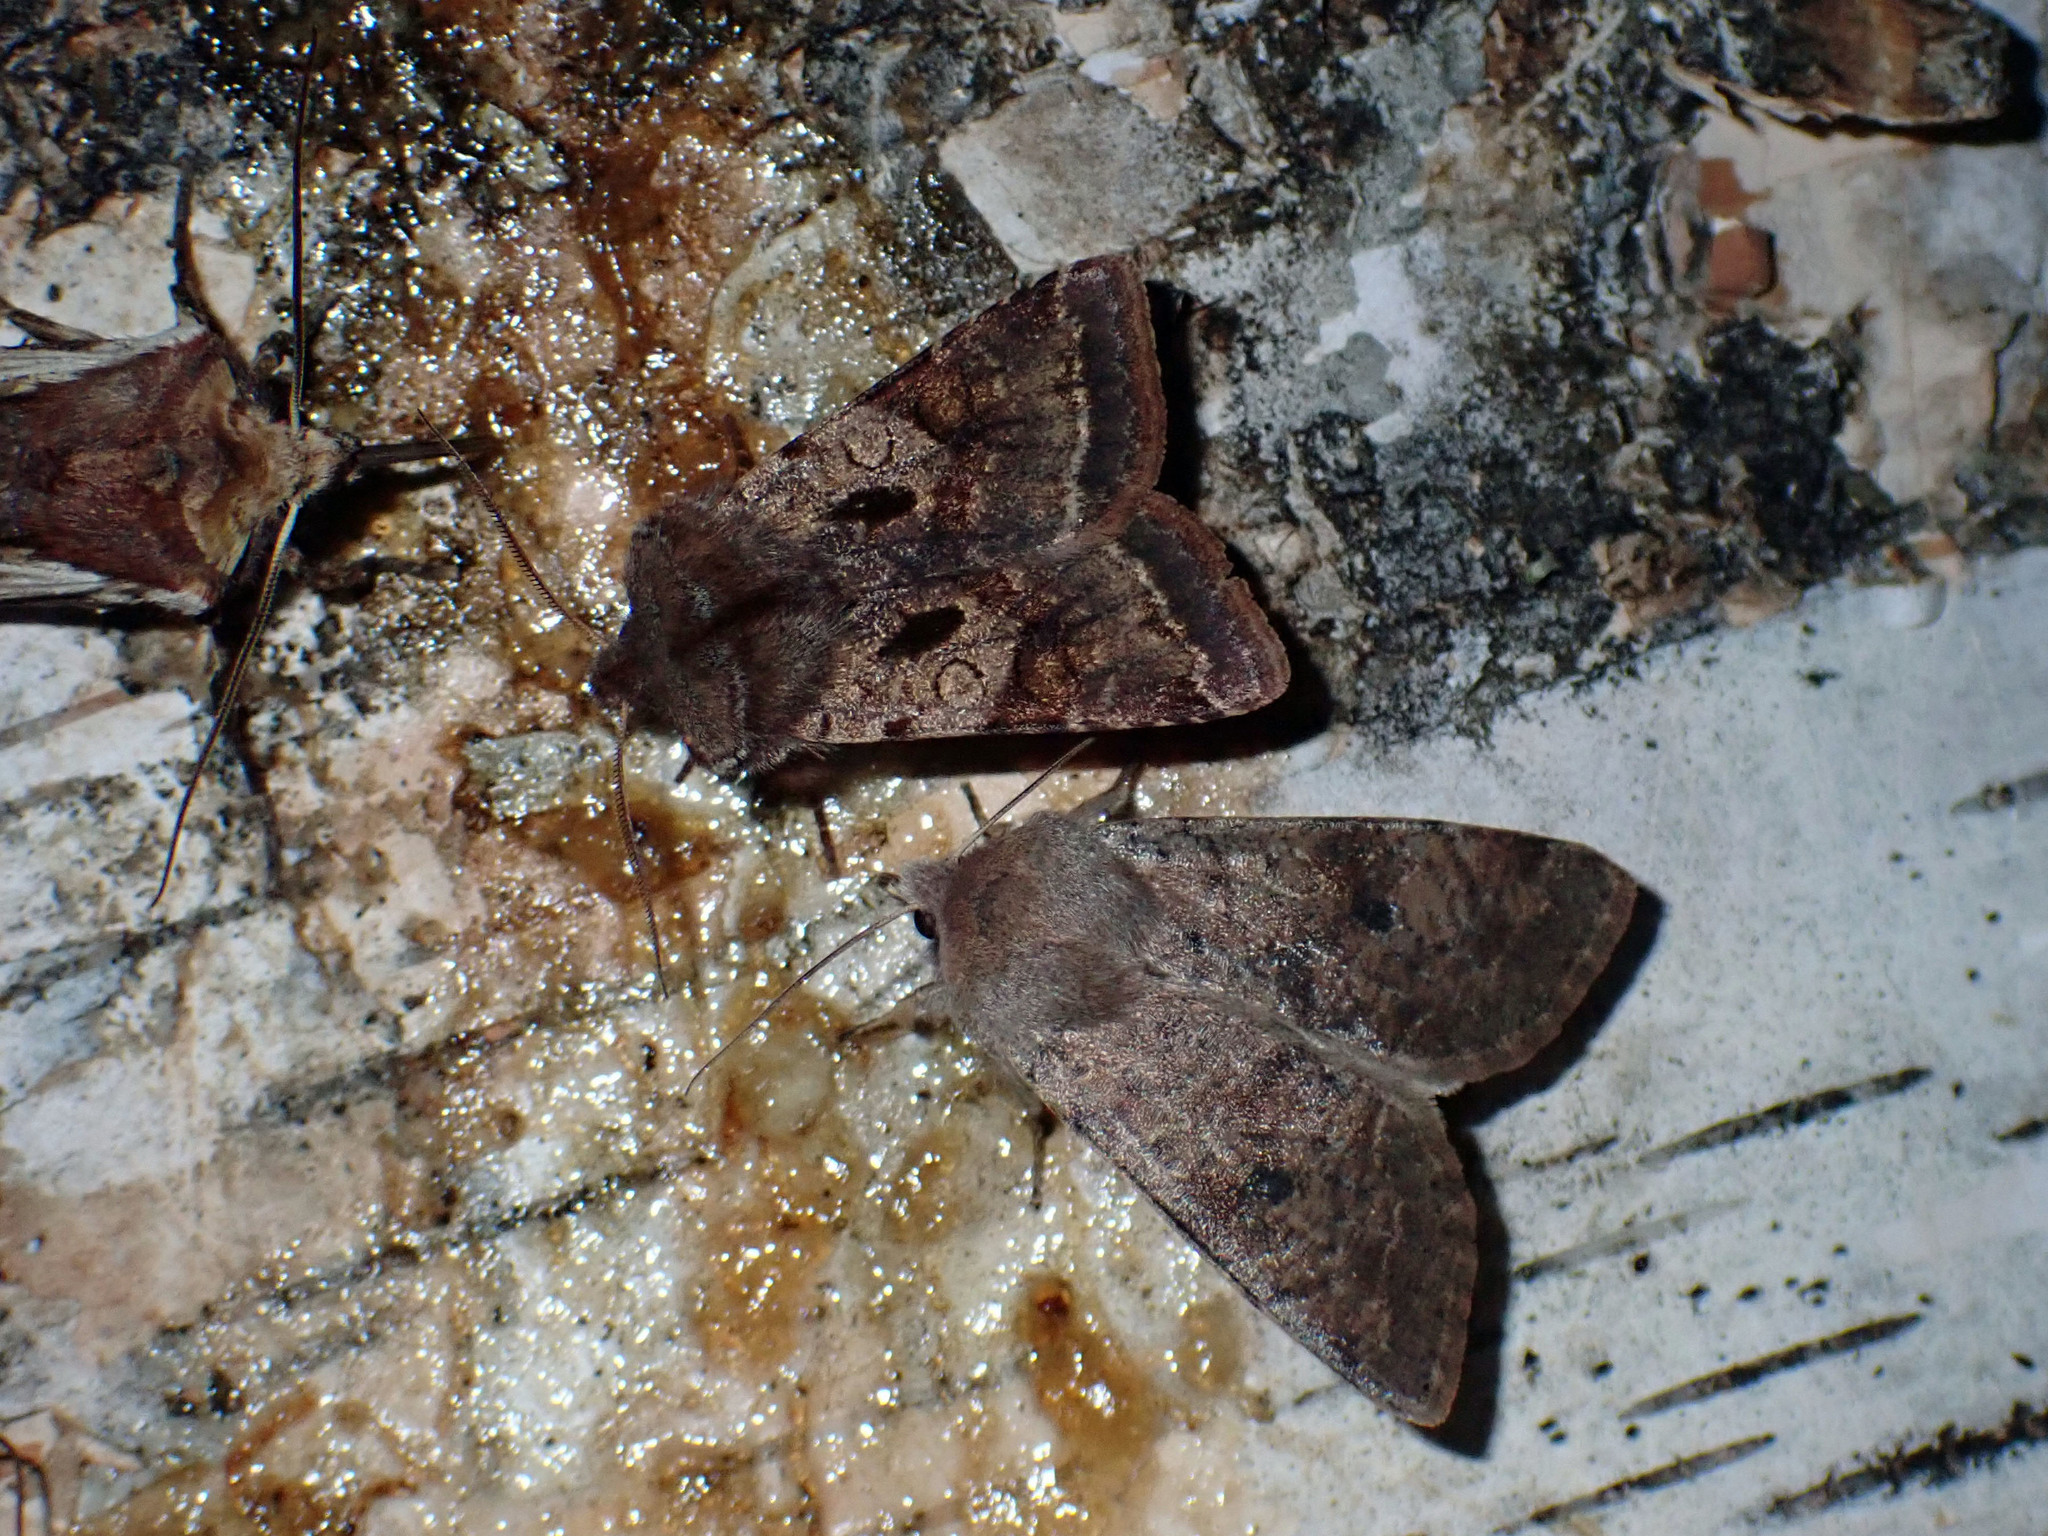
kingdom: Animalia
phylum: Arthropoda
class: Insecta
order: Lepidoptera
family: Noctuidae
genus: Orthosia
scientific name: Orthosia hibisci
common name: Green fruitworm
